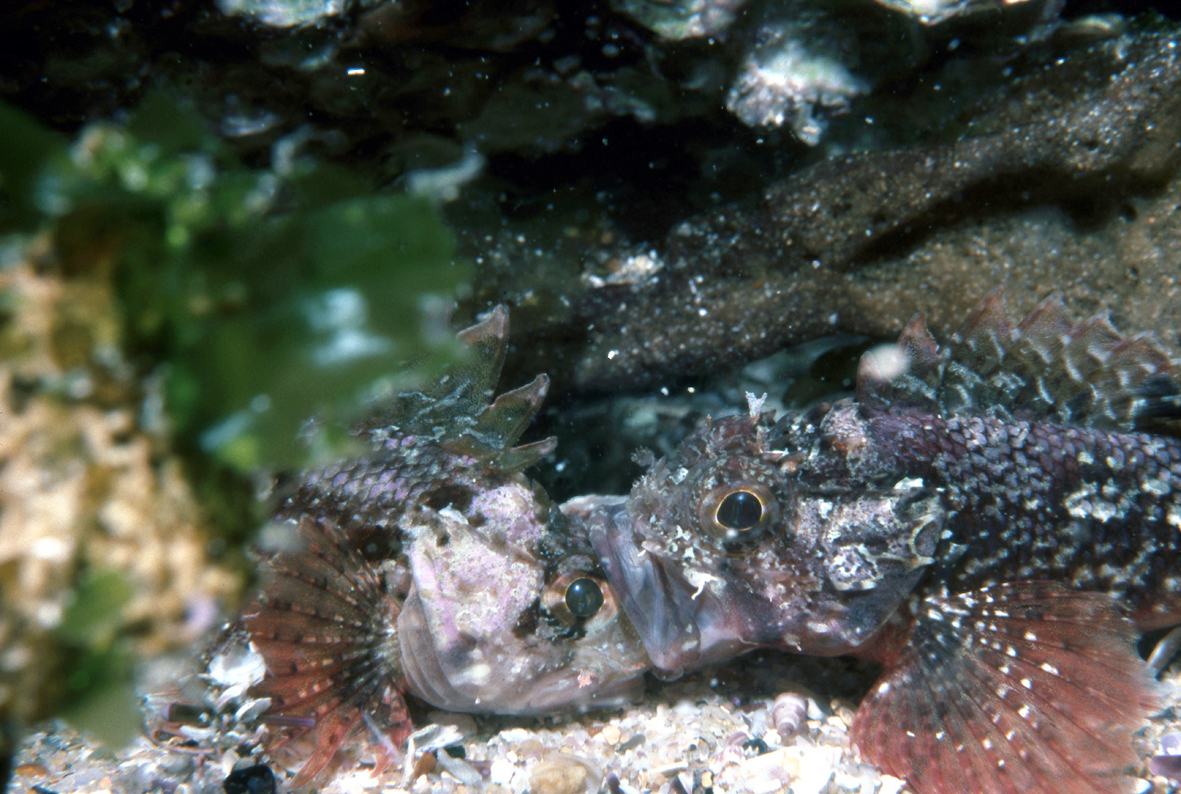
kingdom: Animalia
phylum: Chordata
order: Scorpaeniformes
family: Scorpaenidae
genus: Scorpaena
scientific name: Scorpaena papillosa
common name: Chained scorpionfish
